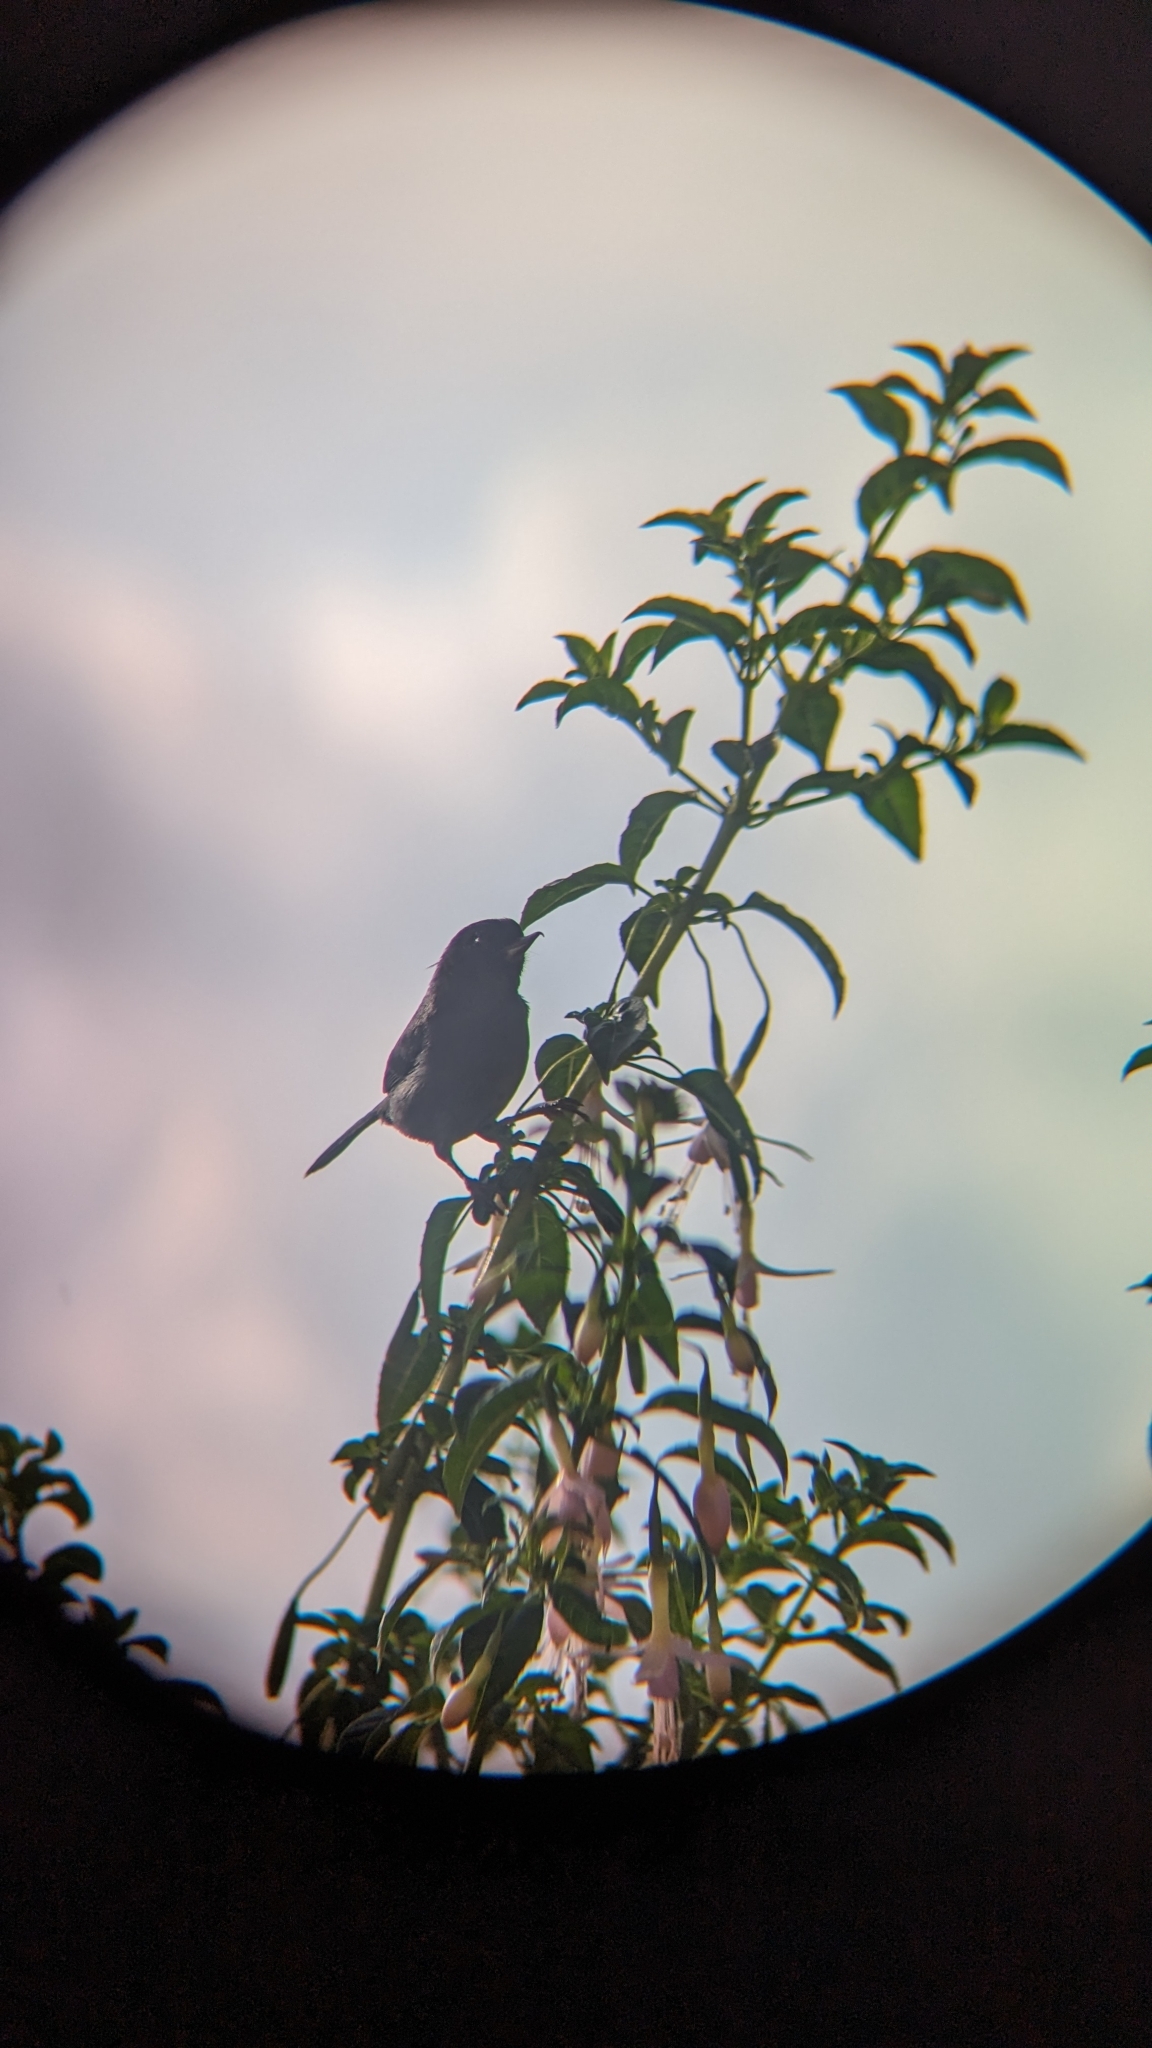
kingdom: Animalia
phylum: Chordata
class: Aves
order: Passeriformes
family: Thraupidae
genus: Diglossa
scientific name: Diglossa plumbea
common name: Slaty flowerpiercer
